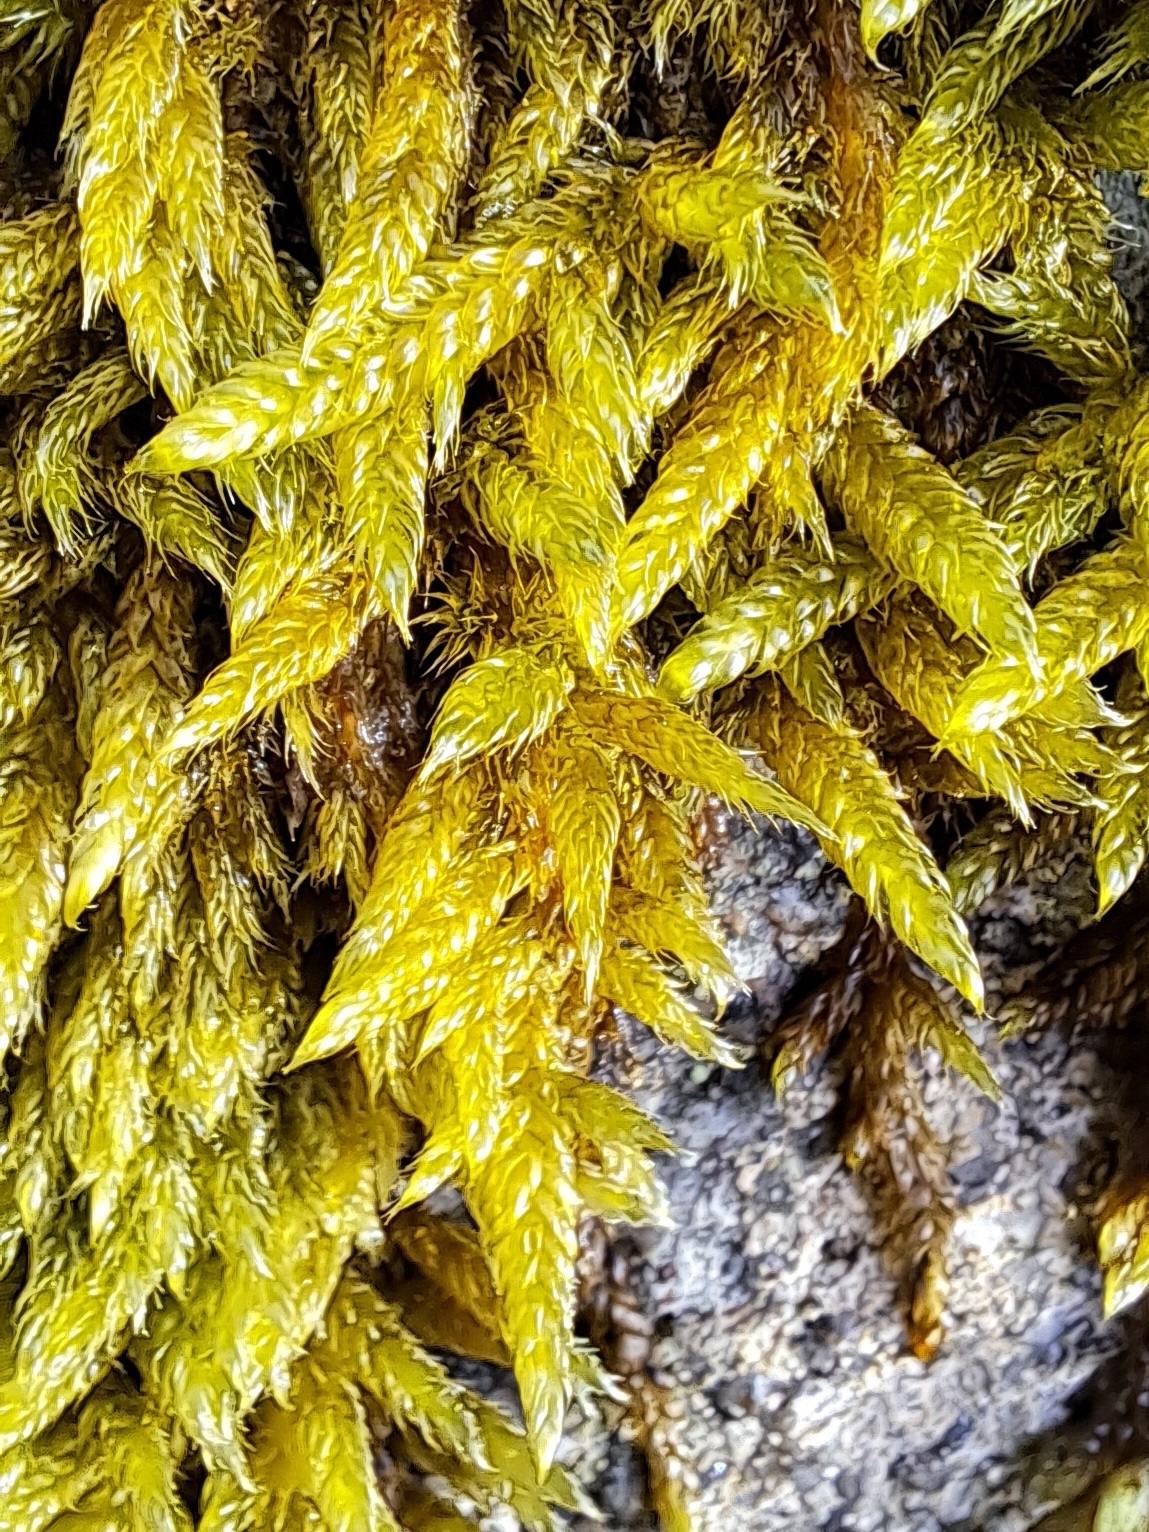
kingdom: Plantae
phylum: Bryophyta
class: Bryopsida
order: Hypnales
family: Hypnaceae
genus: Hypnum
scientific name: Hypnum cupressiforme
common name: Cypress-leaved plait-moss
